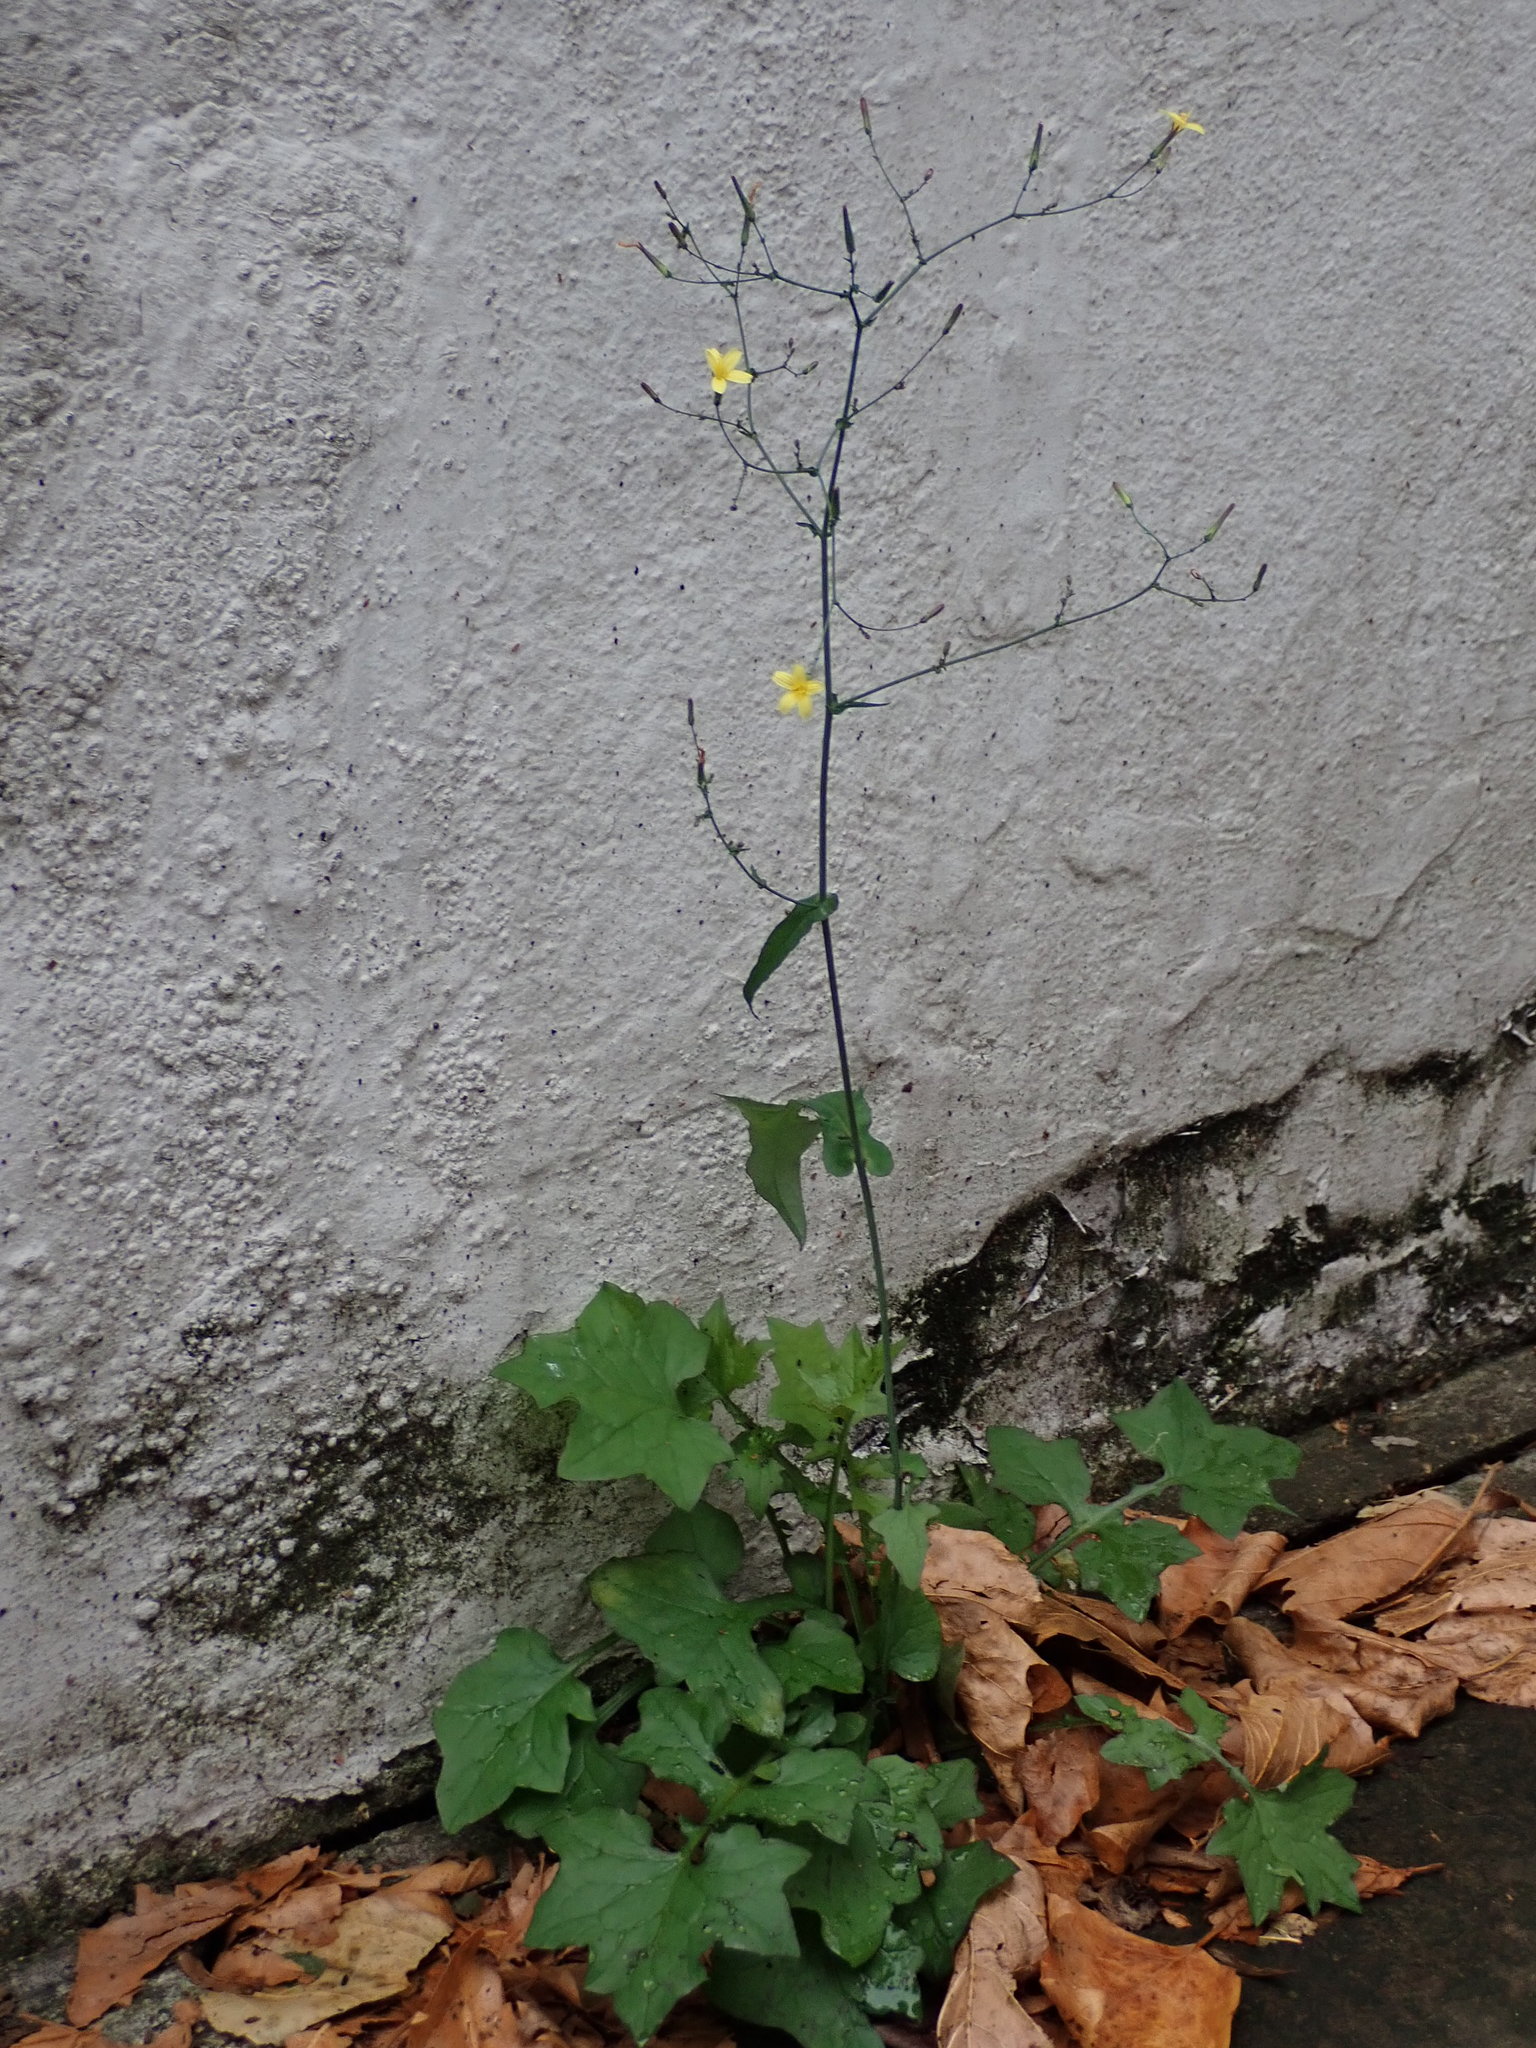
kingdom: Plantae
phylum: Tracheophyta
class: Magnoliopsida
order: Asterales
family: Asteraceae
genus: Mycelis
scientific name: Mycelis muralis
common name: Wall lettuce
